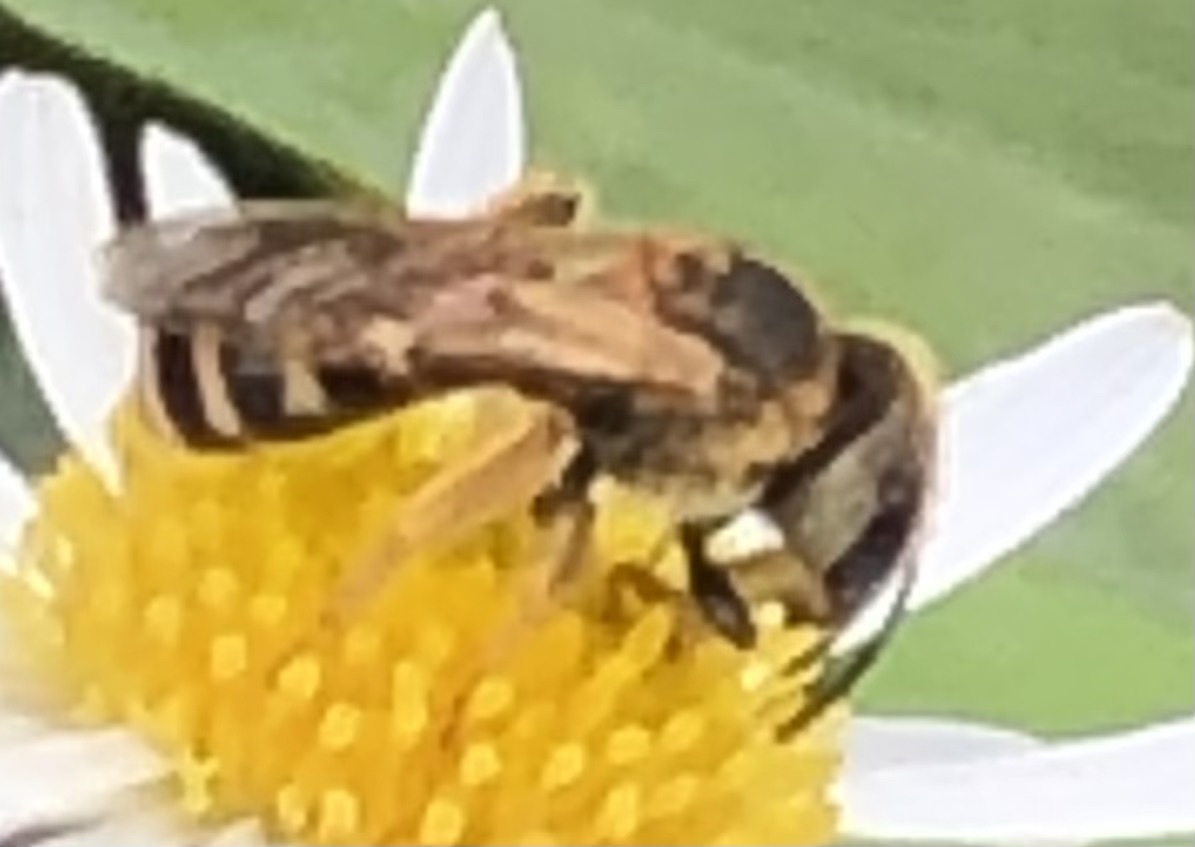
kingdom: Animalia
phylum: Arthropoda
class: Insecta
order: Hymenoptera
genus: Odontalictus
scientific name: Odontalictus
